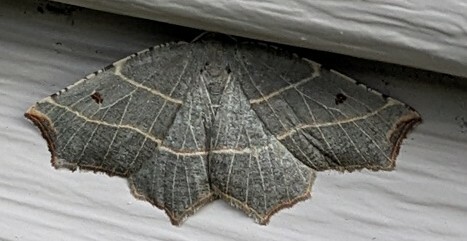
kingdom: Animalia
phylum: Arthropoda
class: Insecta
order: Lepidoptera
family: Geometridae
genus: Metanema
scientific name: Metanema inatomaria
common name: Pale metanema
